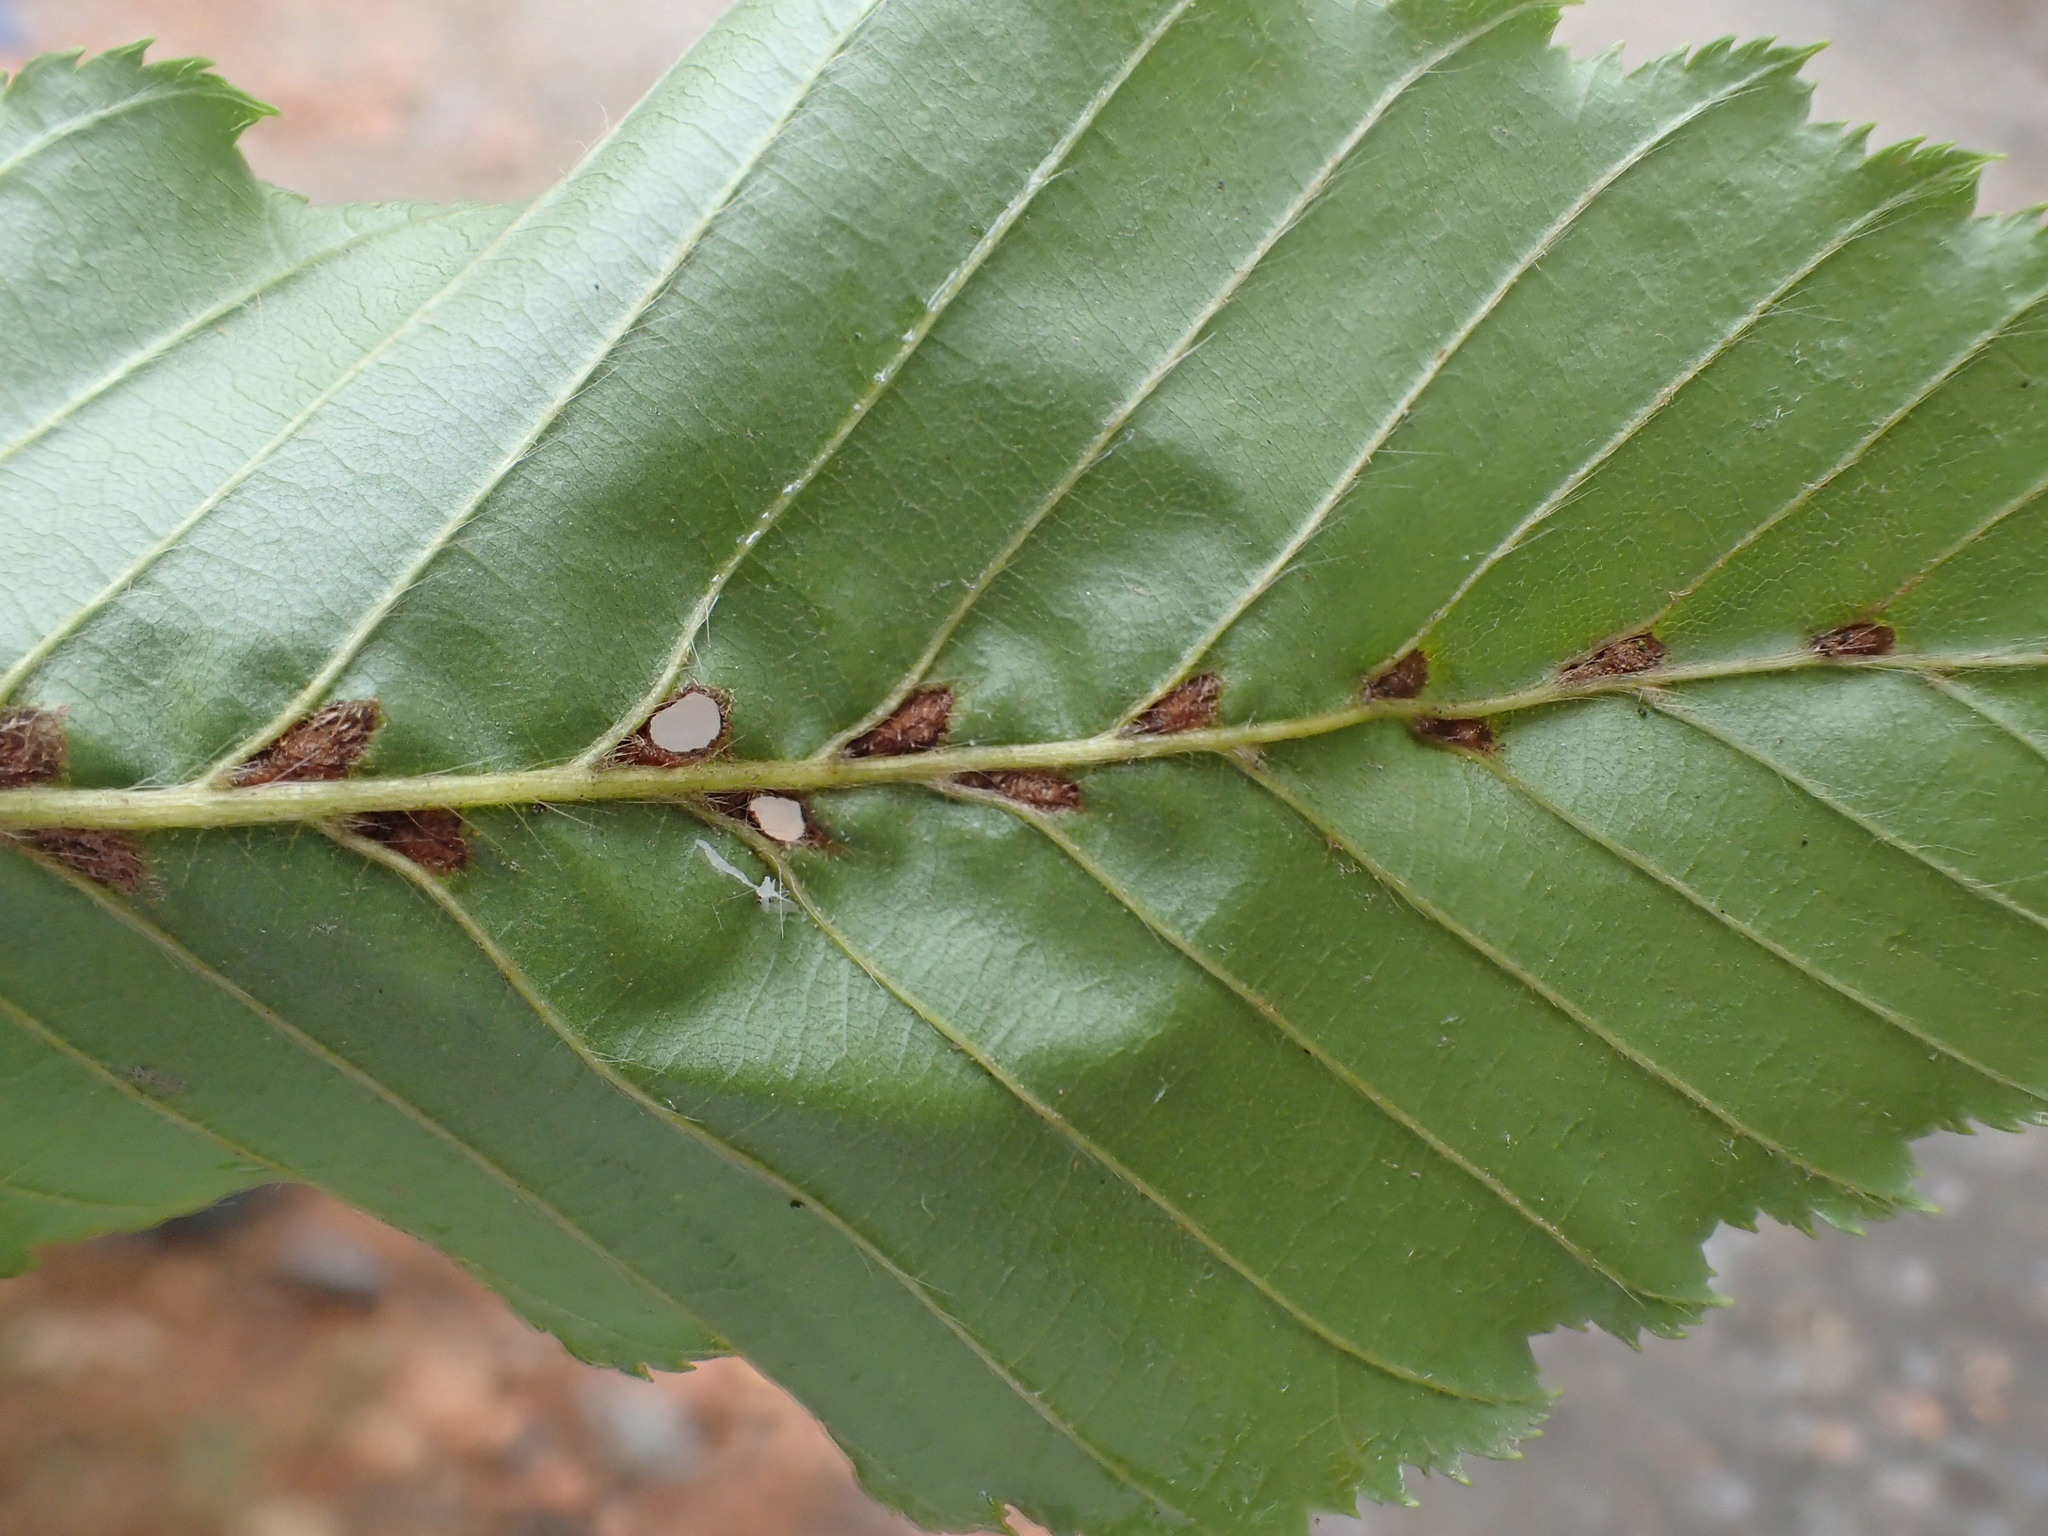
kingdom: Animalia
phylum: Arthropoda
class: Arachnida
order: Trombidiformes
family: Eriophyidae
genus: Aceria
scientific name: Aceria tenellus
